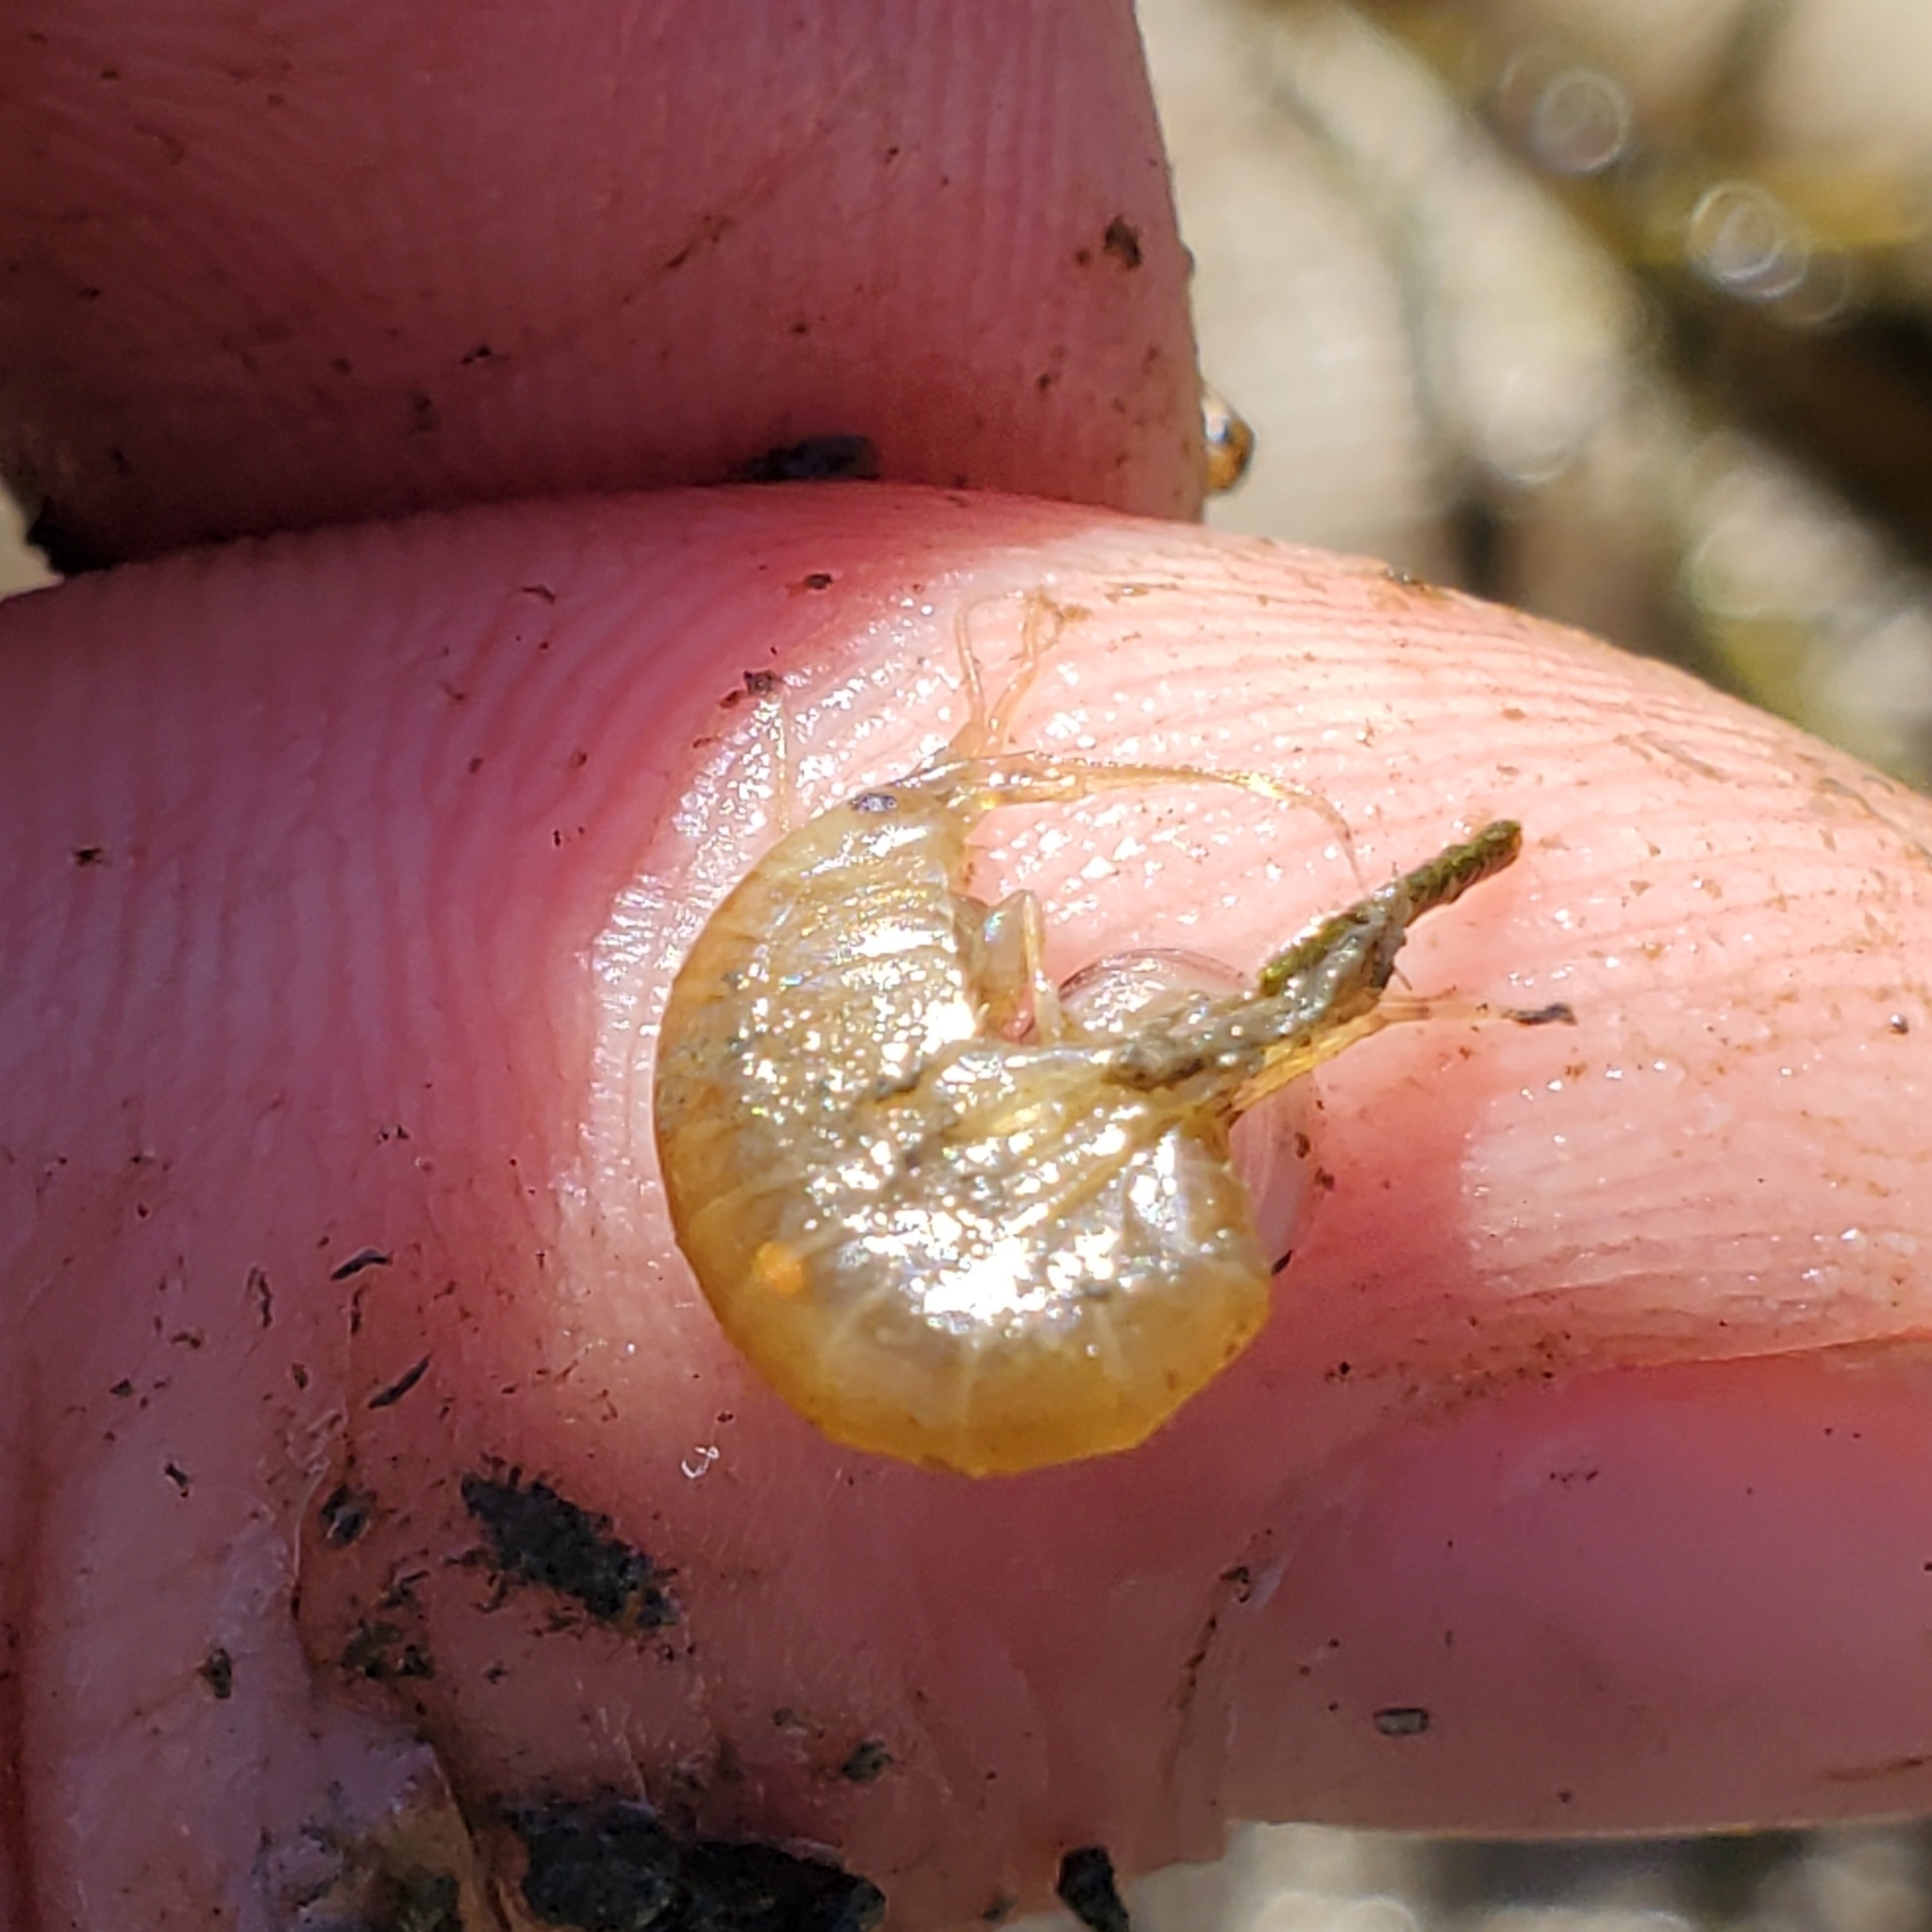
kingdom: Animalia
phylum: Arthropoda
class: Malacostraca
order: Amphipoda
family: Gammaridae
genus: Gammarus
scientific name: Gammarus lacustris
